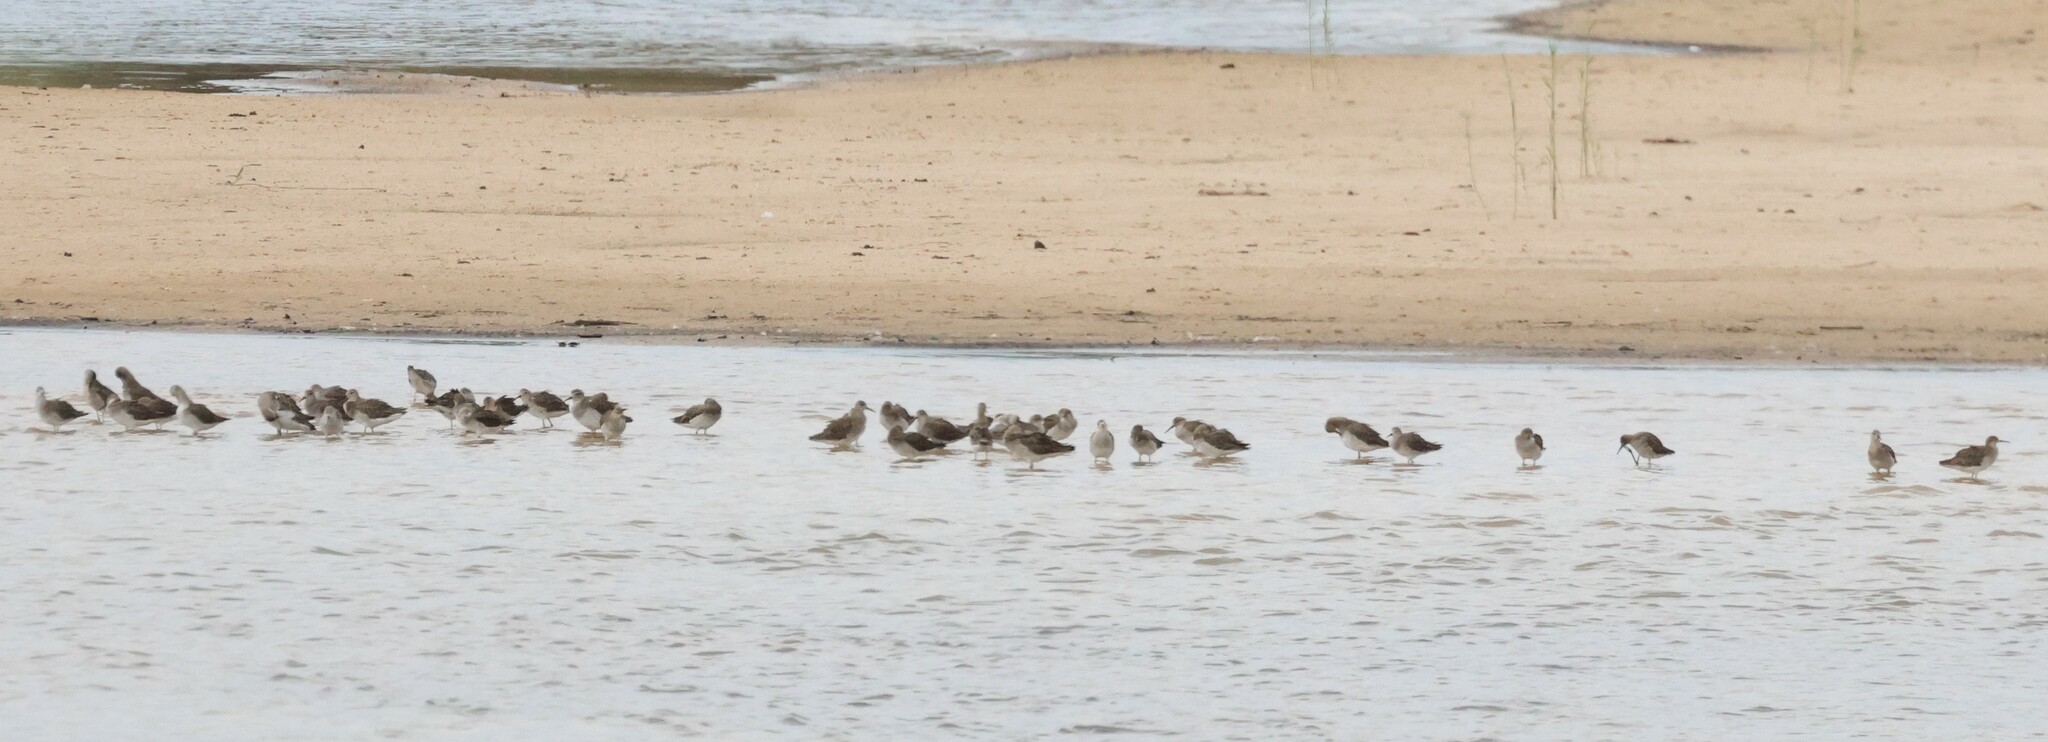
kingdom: Animalia
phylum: Chordata
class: Aves
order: Charadriiformes
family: Scolopacidae
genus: Calidris
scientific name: Calidris pugnax
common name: Ruff
